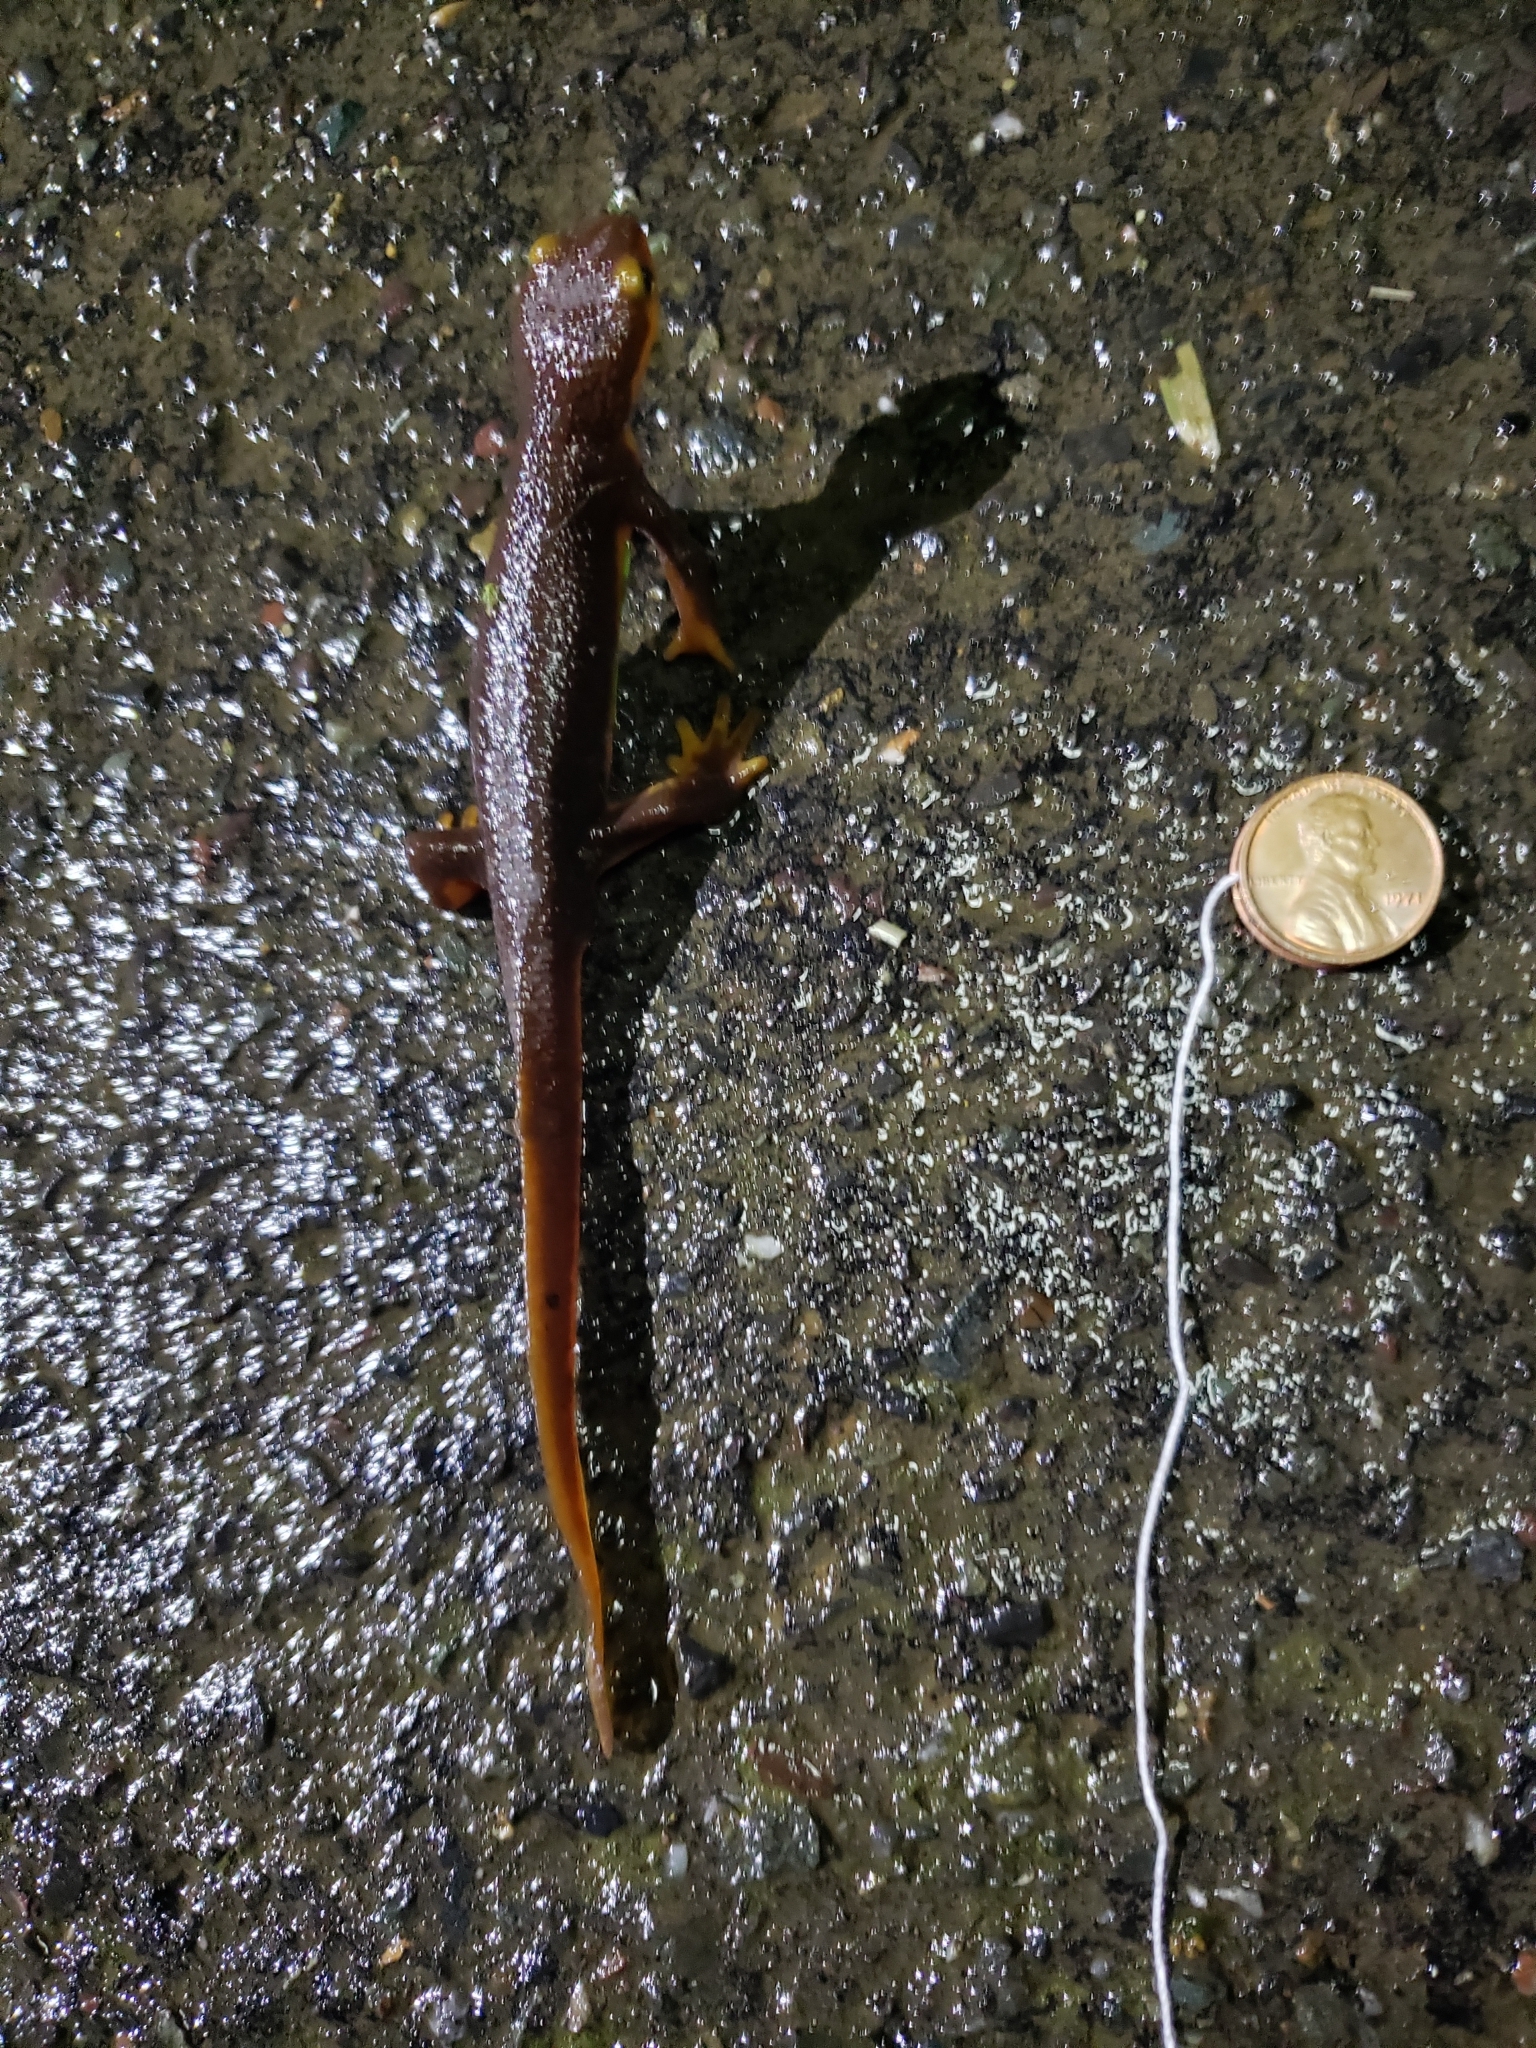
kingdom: Animalia
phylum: Chordata
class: Amphibia
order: Caudata
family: Salamandridae
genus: Taricha
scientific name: Taricha torosa
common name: California newt
